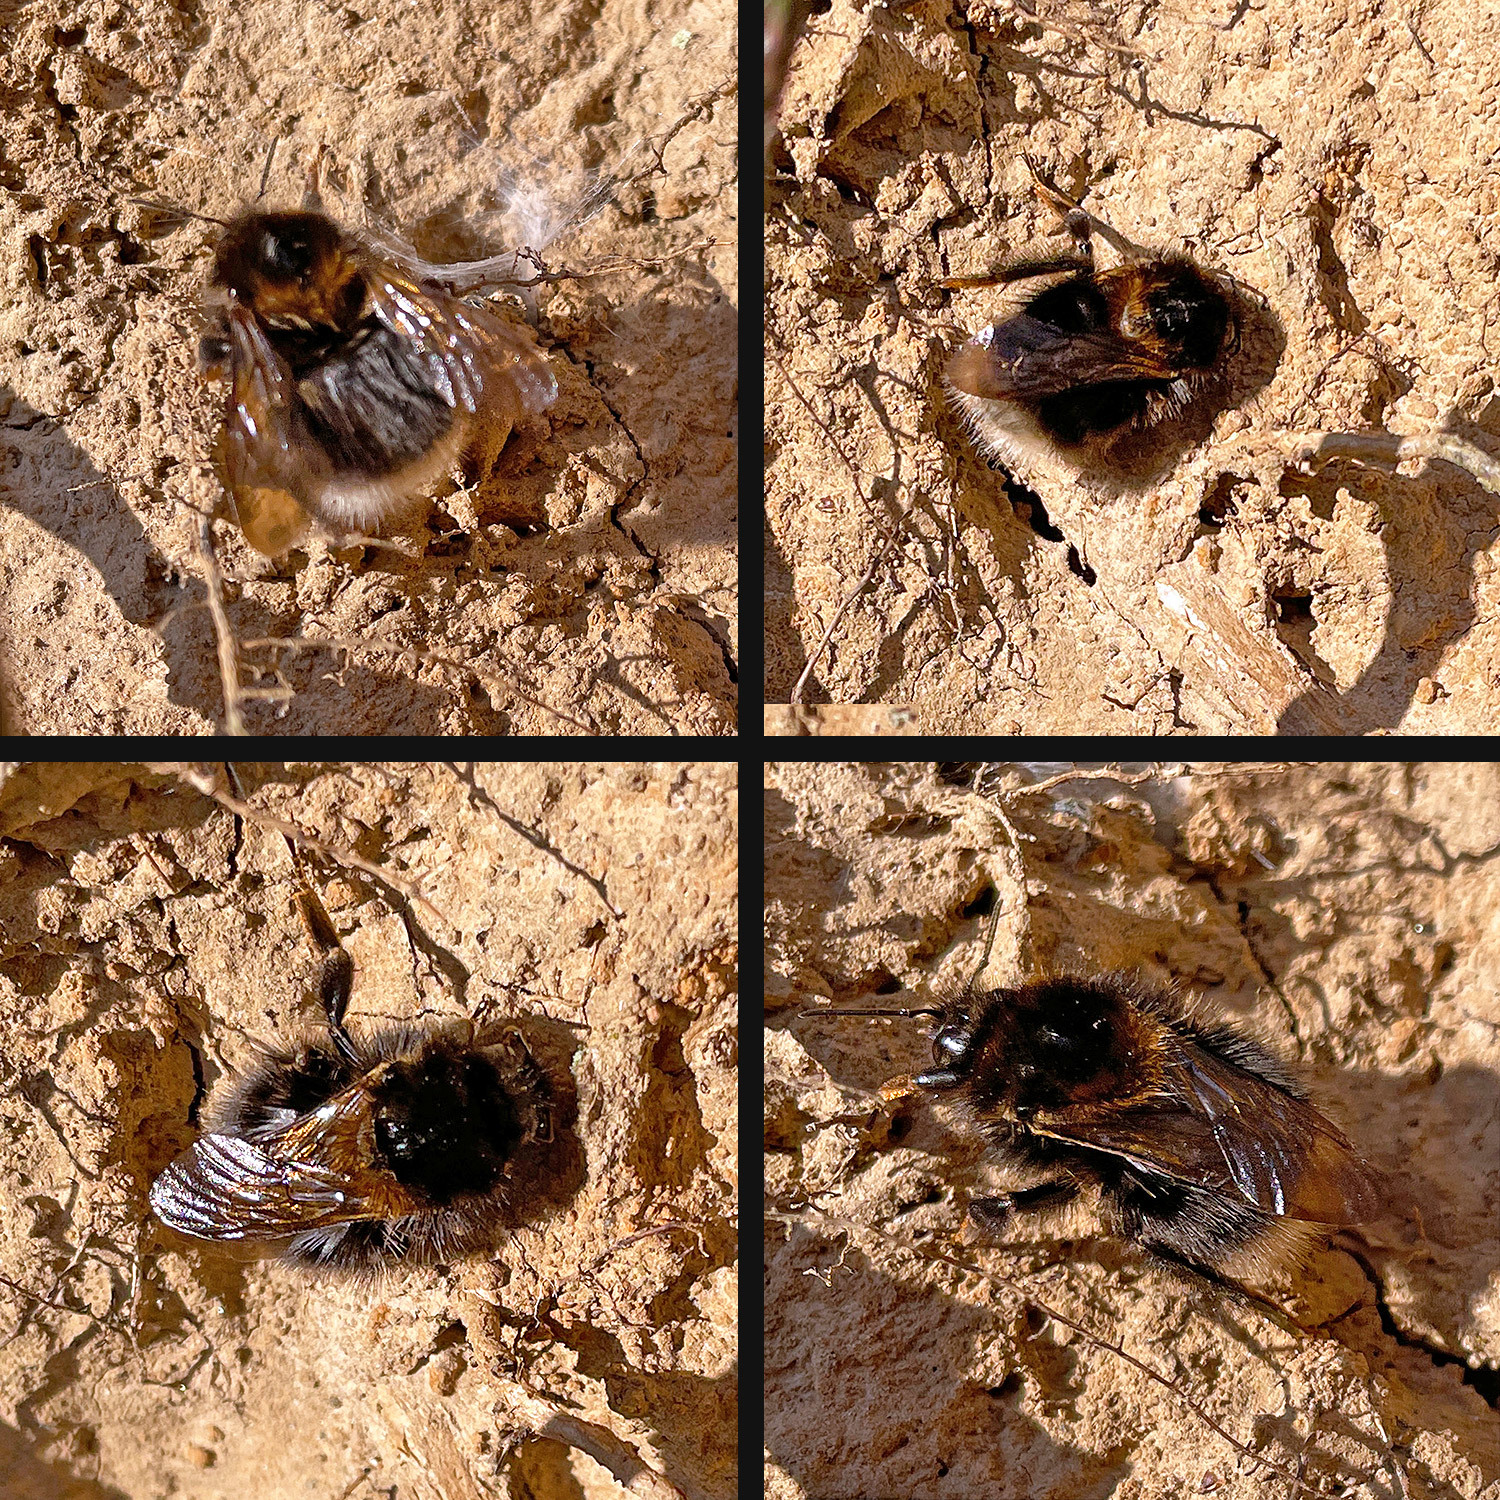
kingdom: Animalia
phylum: Arthropoda
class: Insecta
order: Hymenoptera
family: Apidae
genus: Bombus
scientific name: Bombus hypnorum
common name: New garden bumblebee
